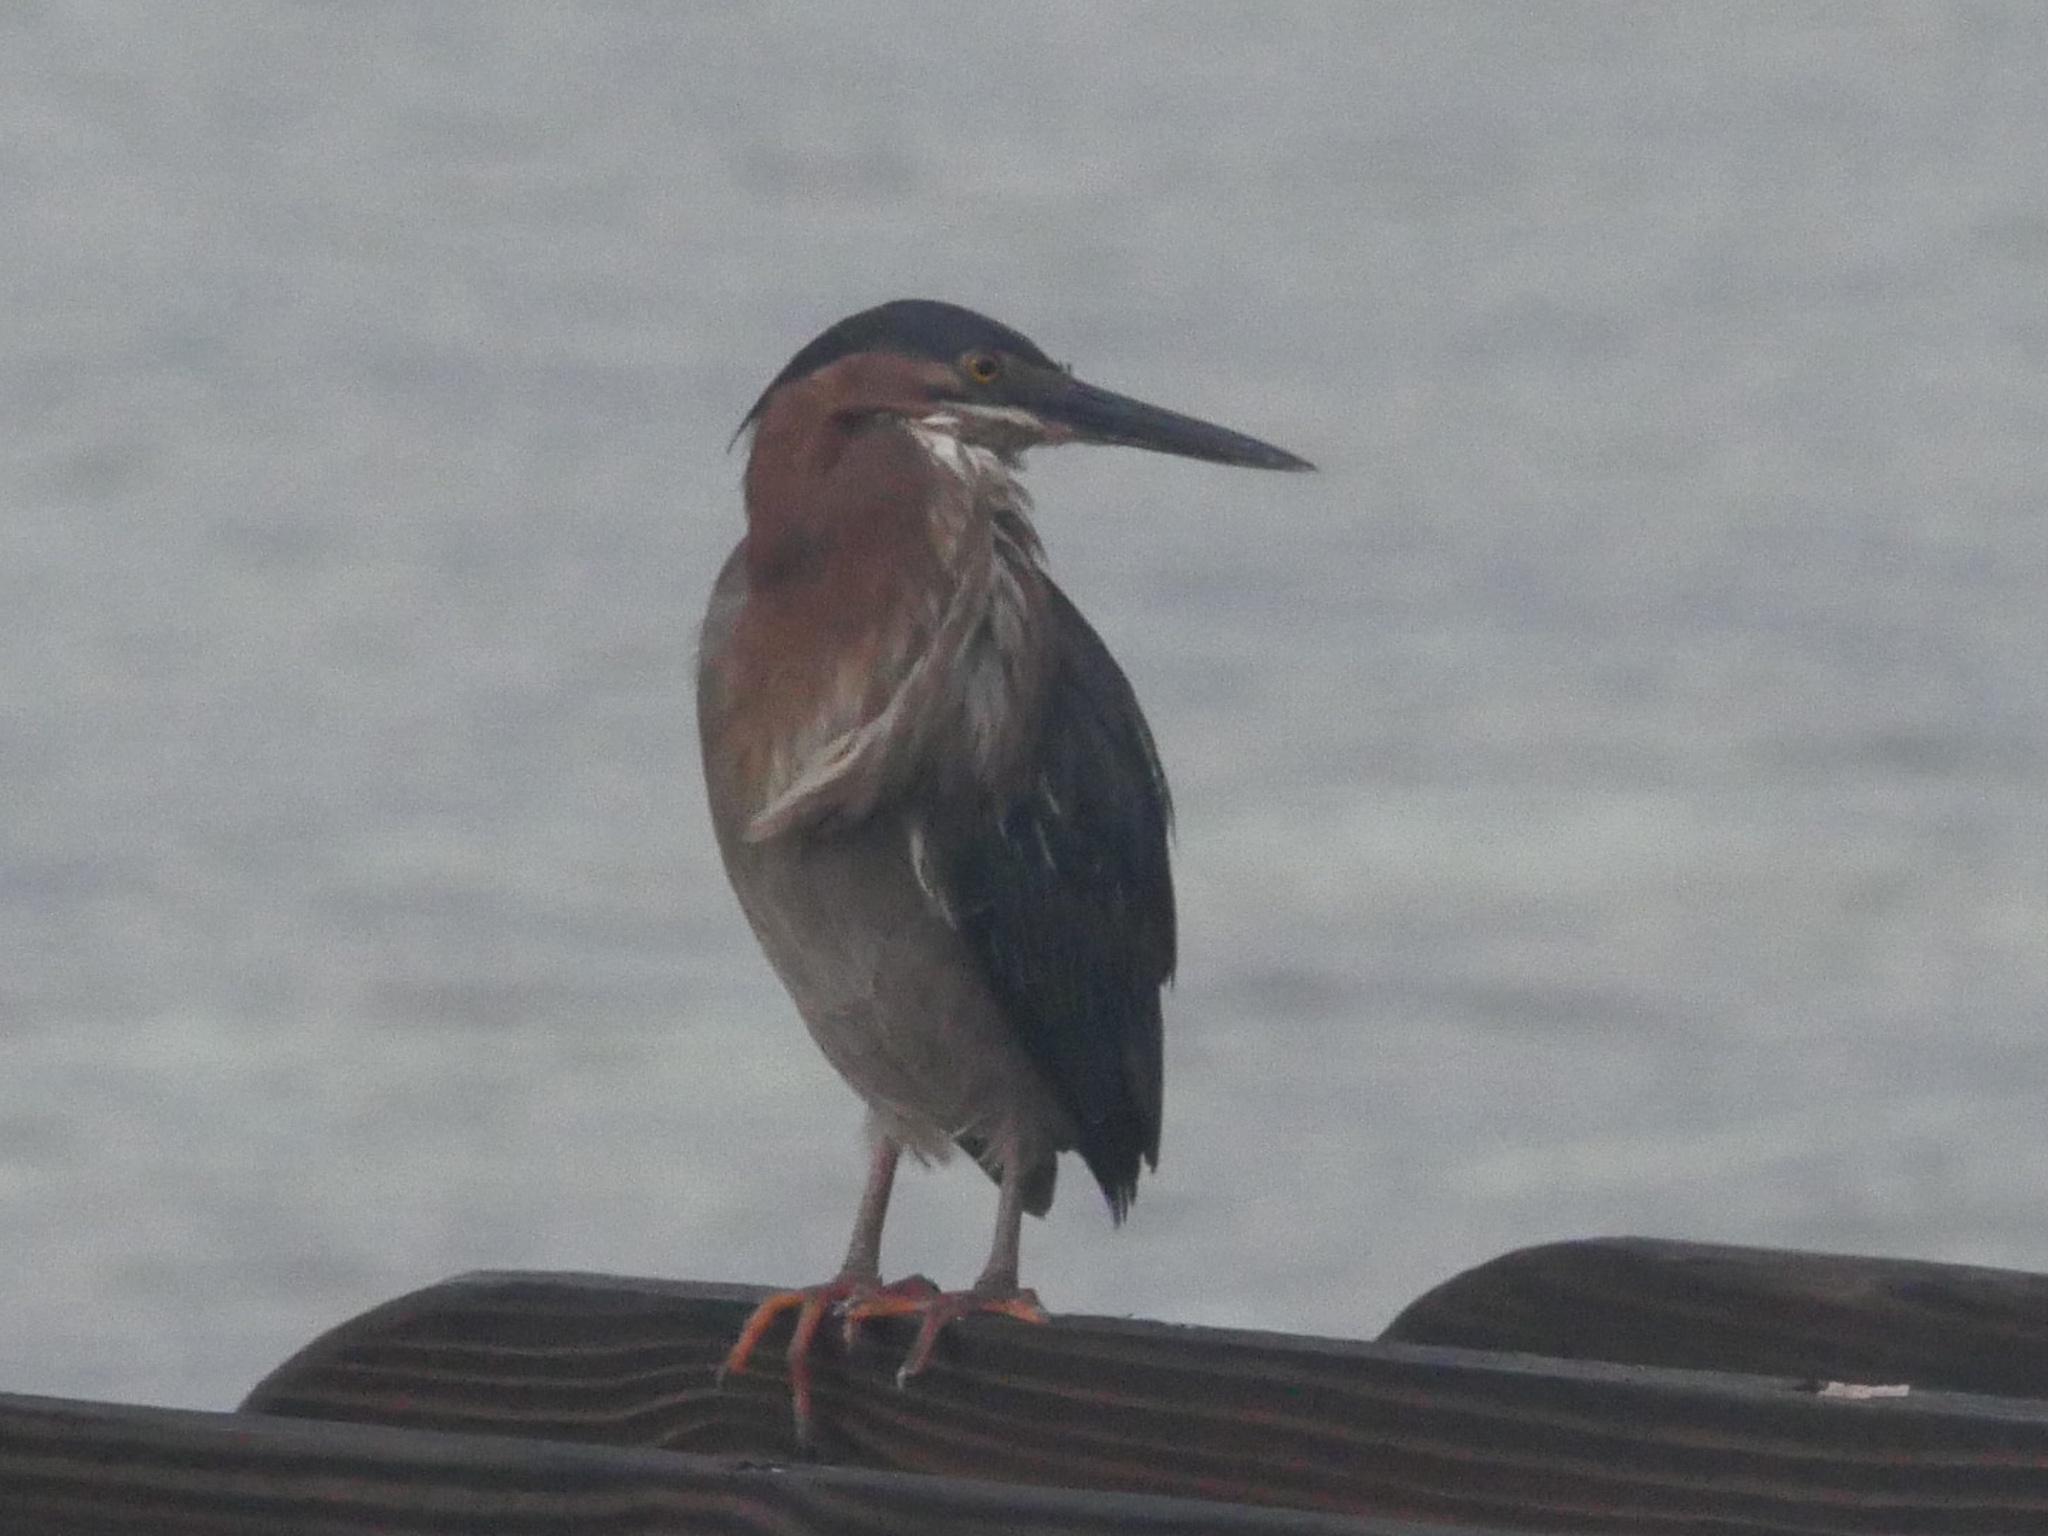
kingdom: Animalia
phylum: Chordata
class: Aves
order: Pelecaniformes
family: Ardeidae
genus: Butorides
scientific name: Butorides virescens
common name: Green heron
